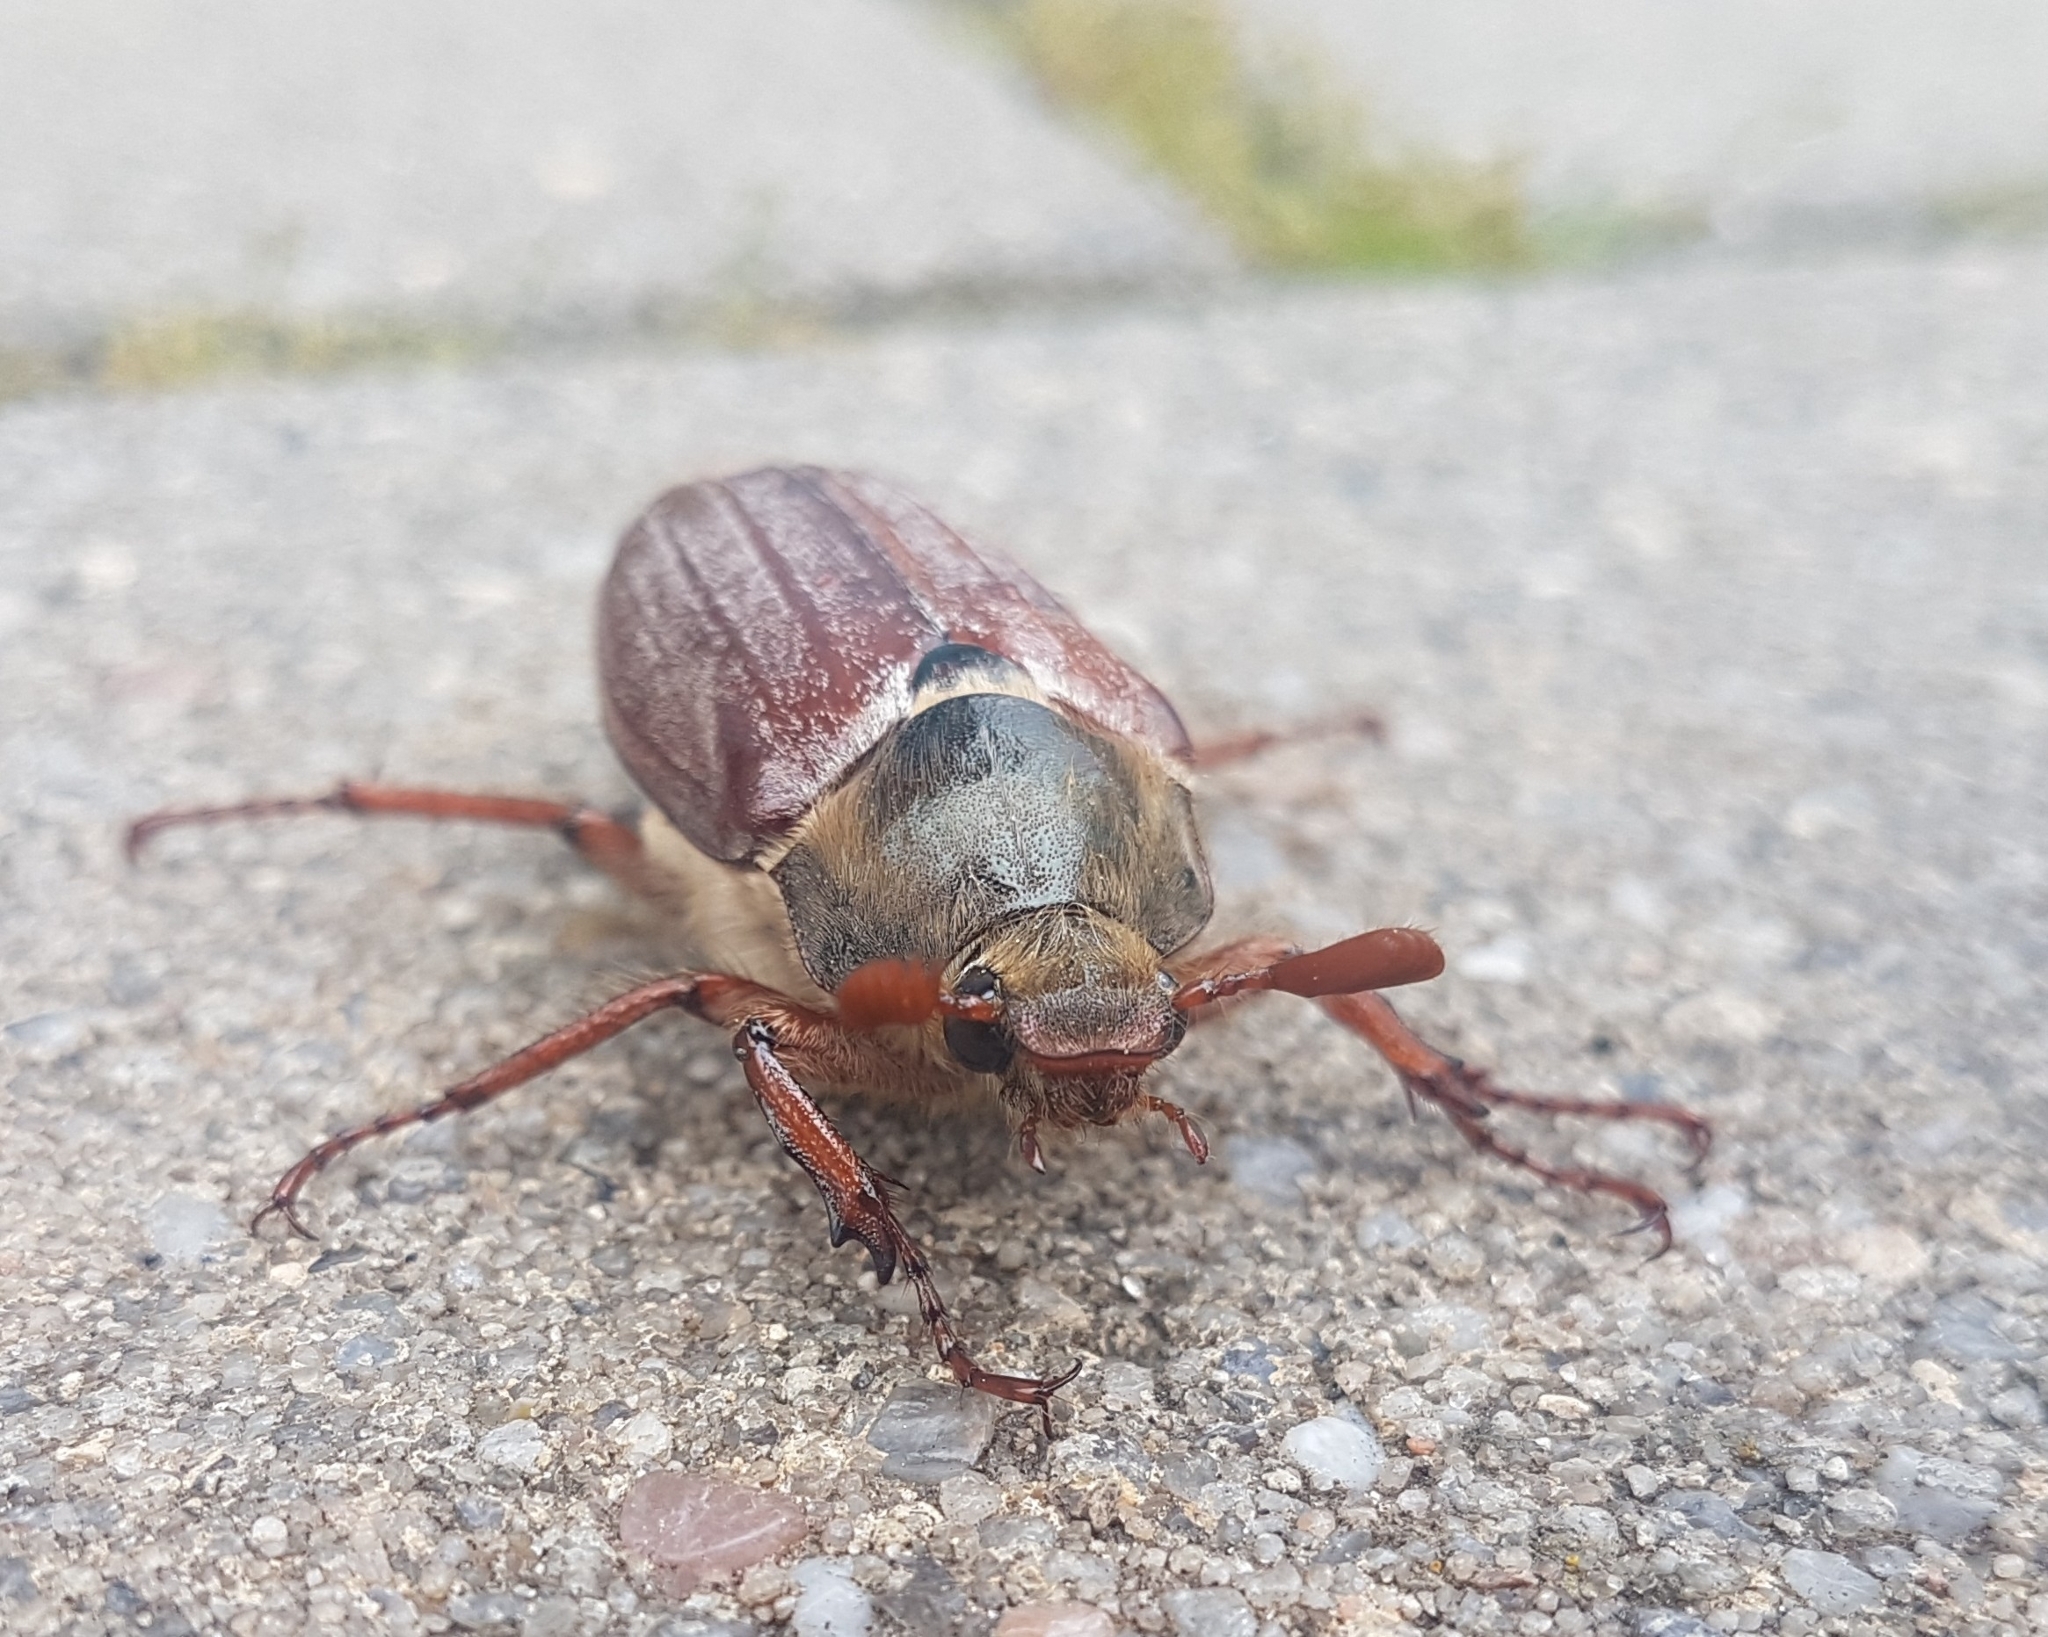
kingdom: Animalia
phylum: Arthropoda
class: Insecta
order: Coleoptera
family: Scarabaeidae
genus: Melolontha
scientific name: Melolontha melolontha
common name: Cockchafer maybeetle
